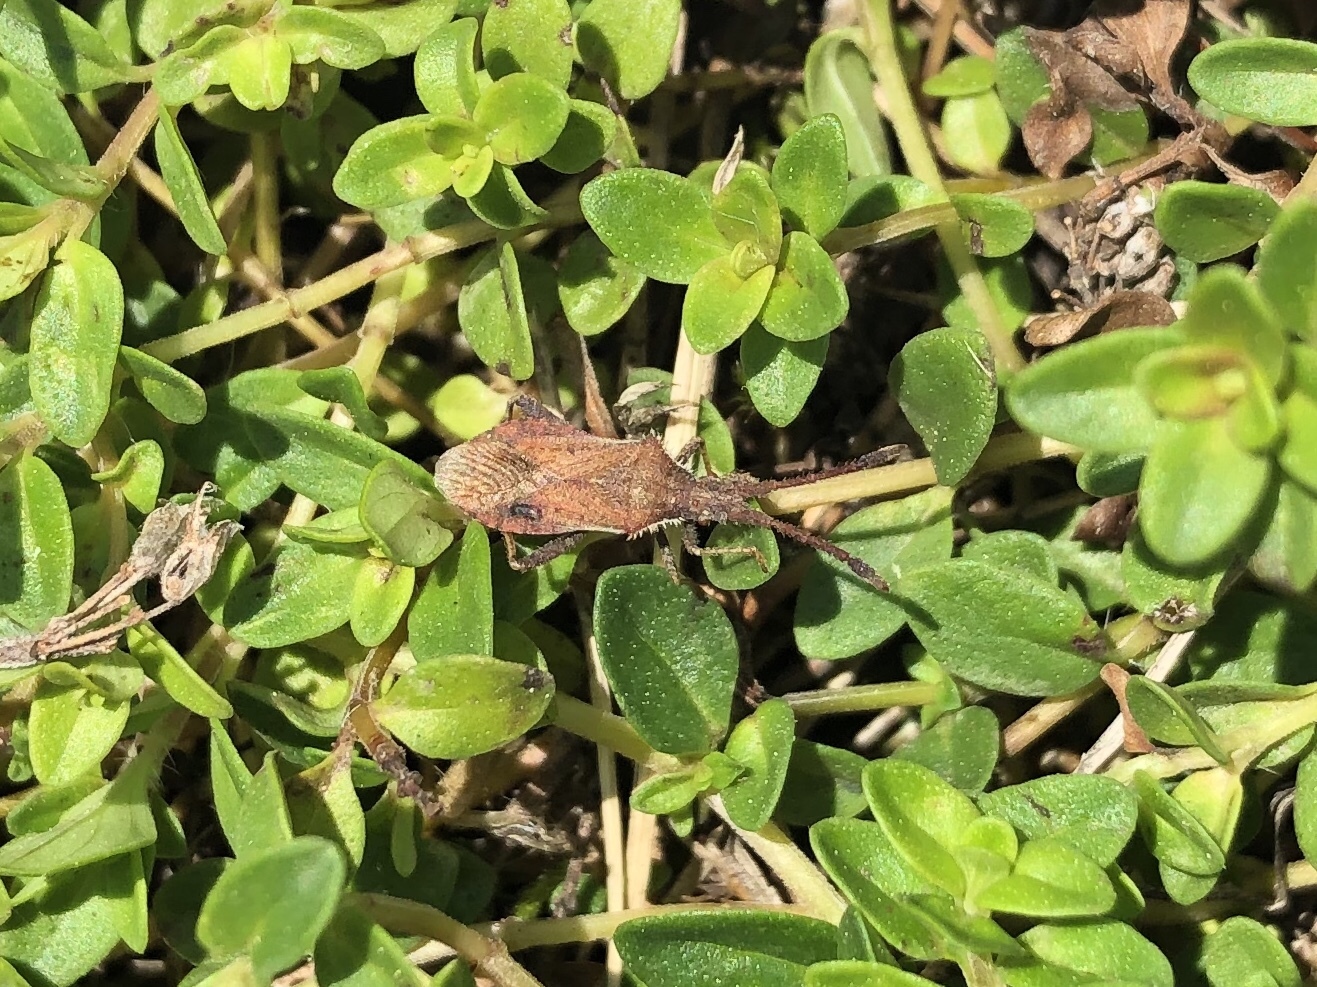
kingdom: Animalia
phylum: Arthropoda
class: Insecta
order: Hemiptera
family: Coreidae
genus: Coriomeris
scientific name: Coriomeris denticulatus
